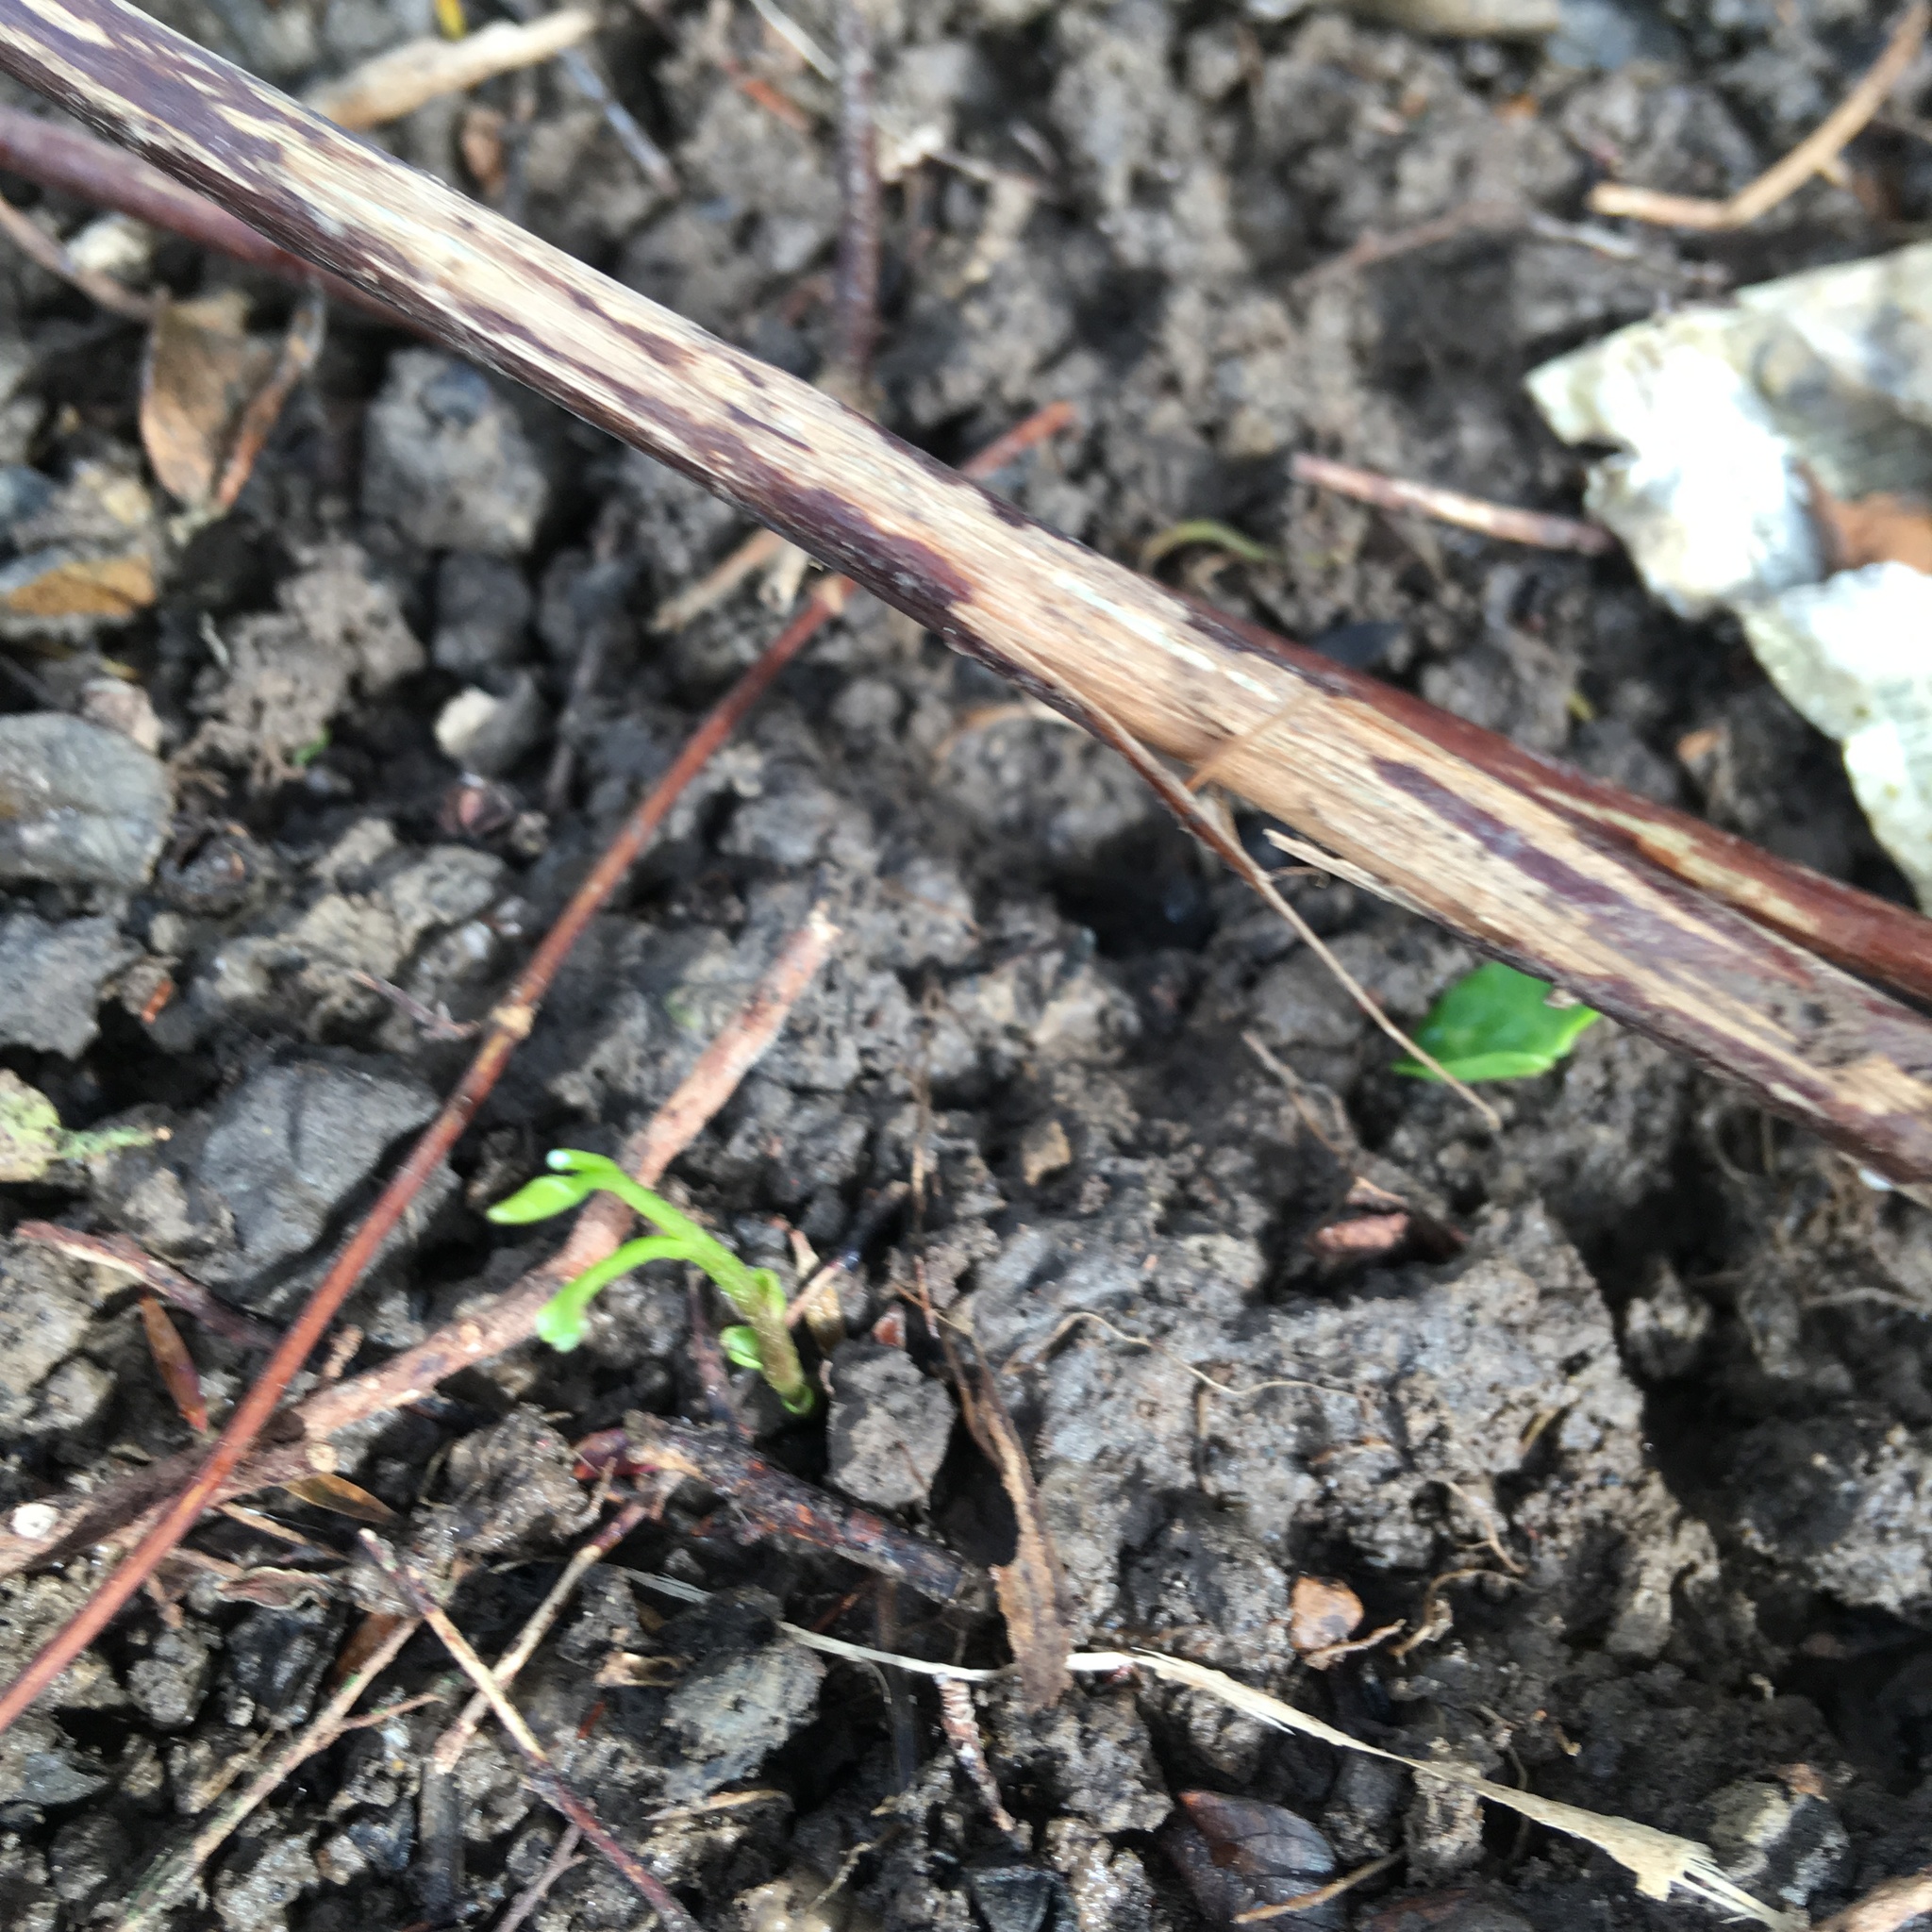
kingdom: Plantae
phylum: Tracheophyta
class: Magnoliopsida
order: Dipsacales
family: Caprifoliaceae
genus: Lonicera
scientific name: Lonicera japonica
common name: Japanese honeysuckle
